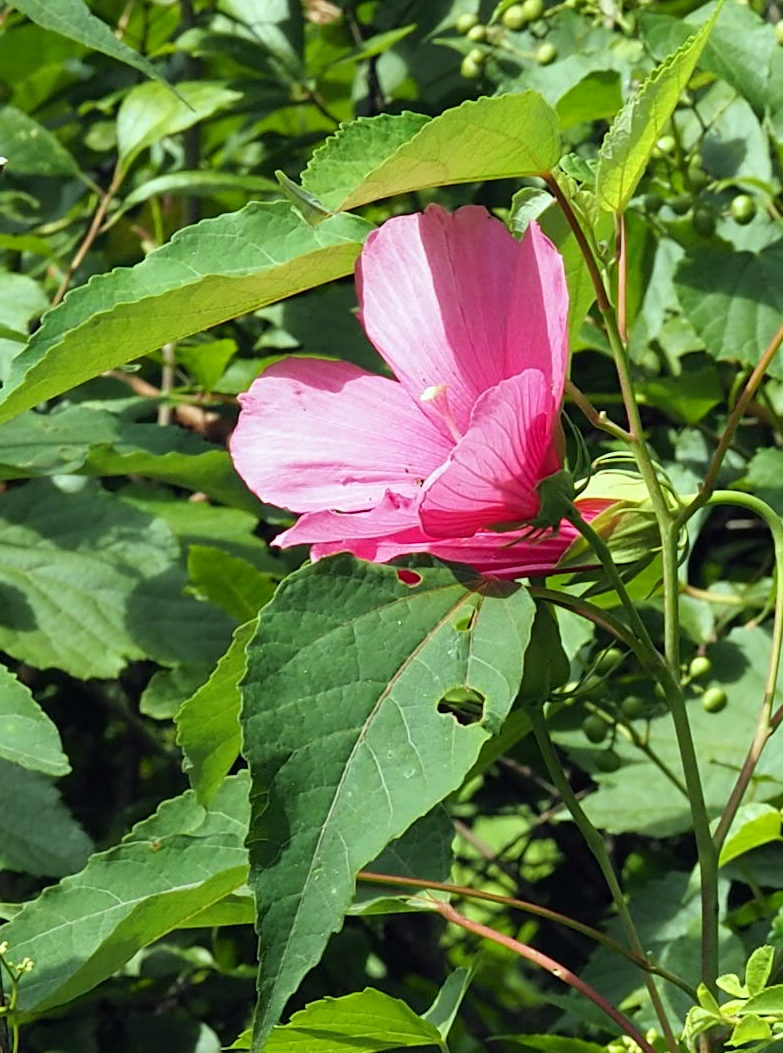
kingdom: Plantae
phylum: Tracheophyta
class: Magnoliopsida
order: Malvales
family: Malvaceae
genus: Hibiscus
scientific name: Hibiscus moscheutos
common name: Common rose-mallow
